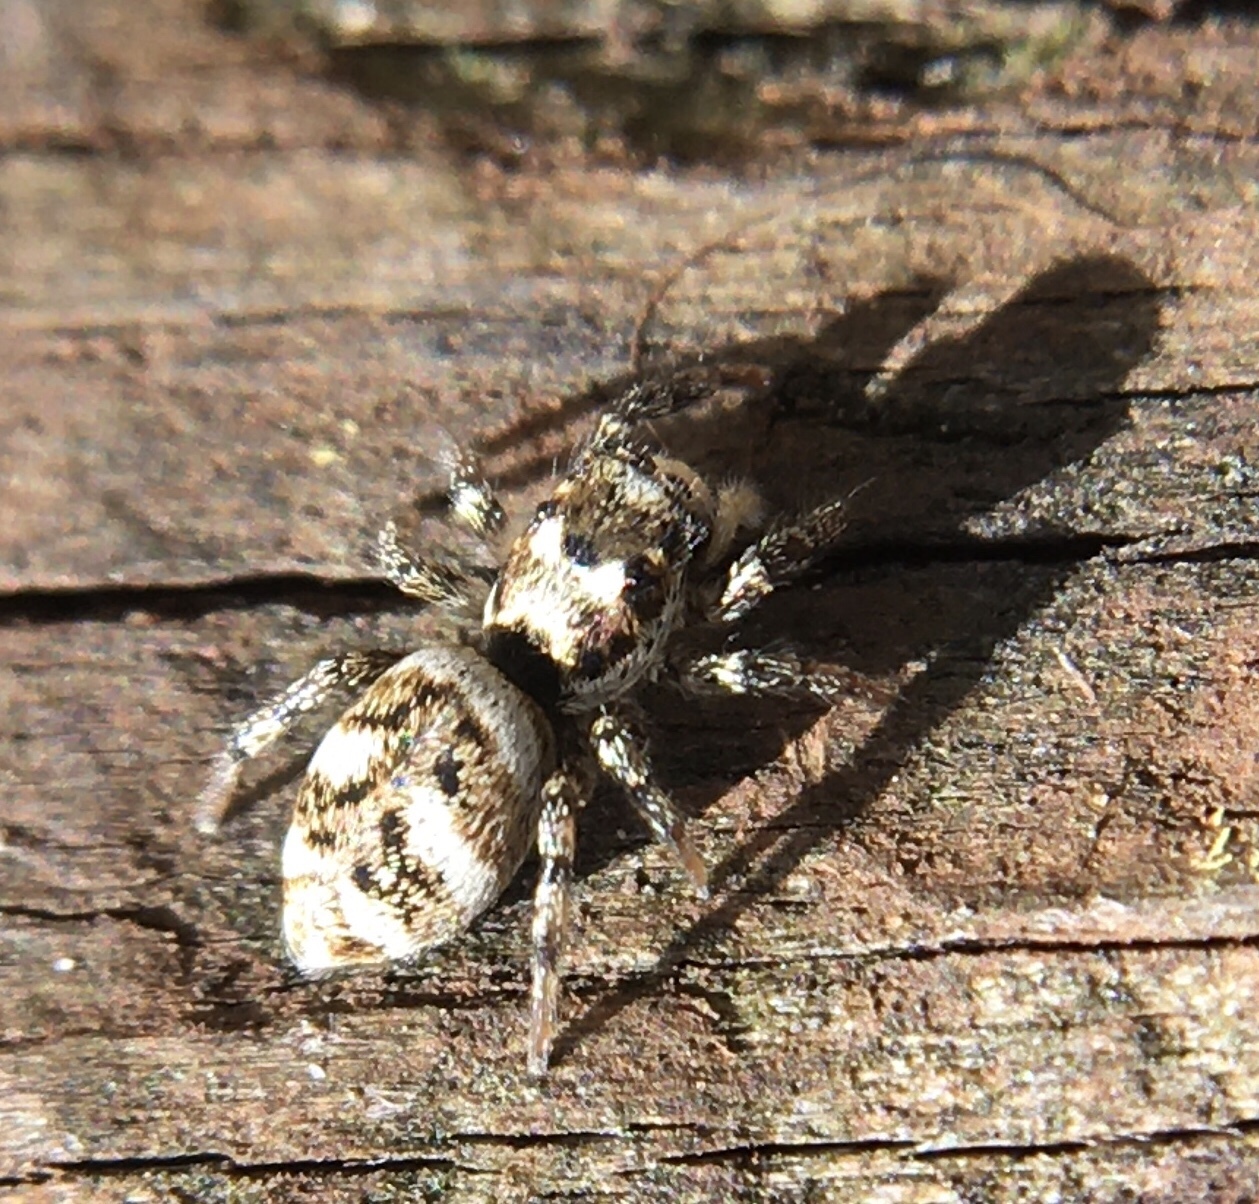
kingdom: Animalia
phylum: Arthropoda
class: Arachnida
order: Araneae
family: Salticidae
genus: Salticus
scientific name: Salticus scenicus
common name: Zebra jumper
